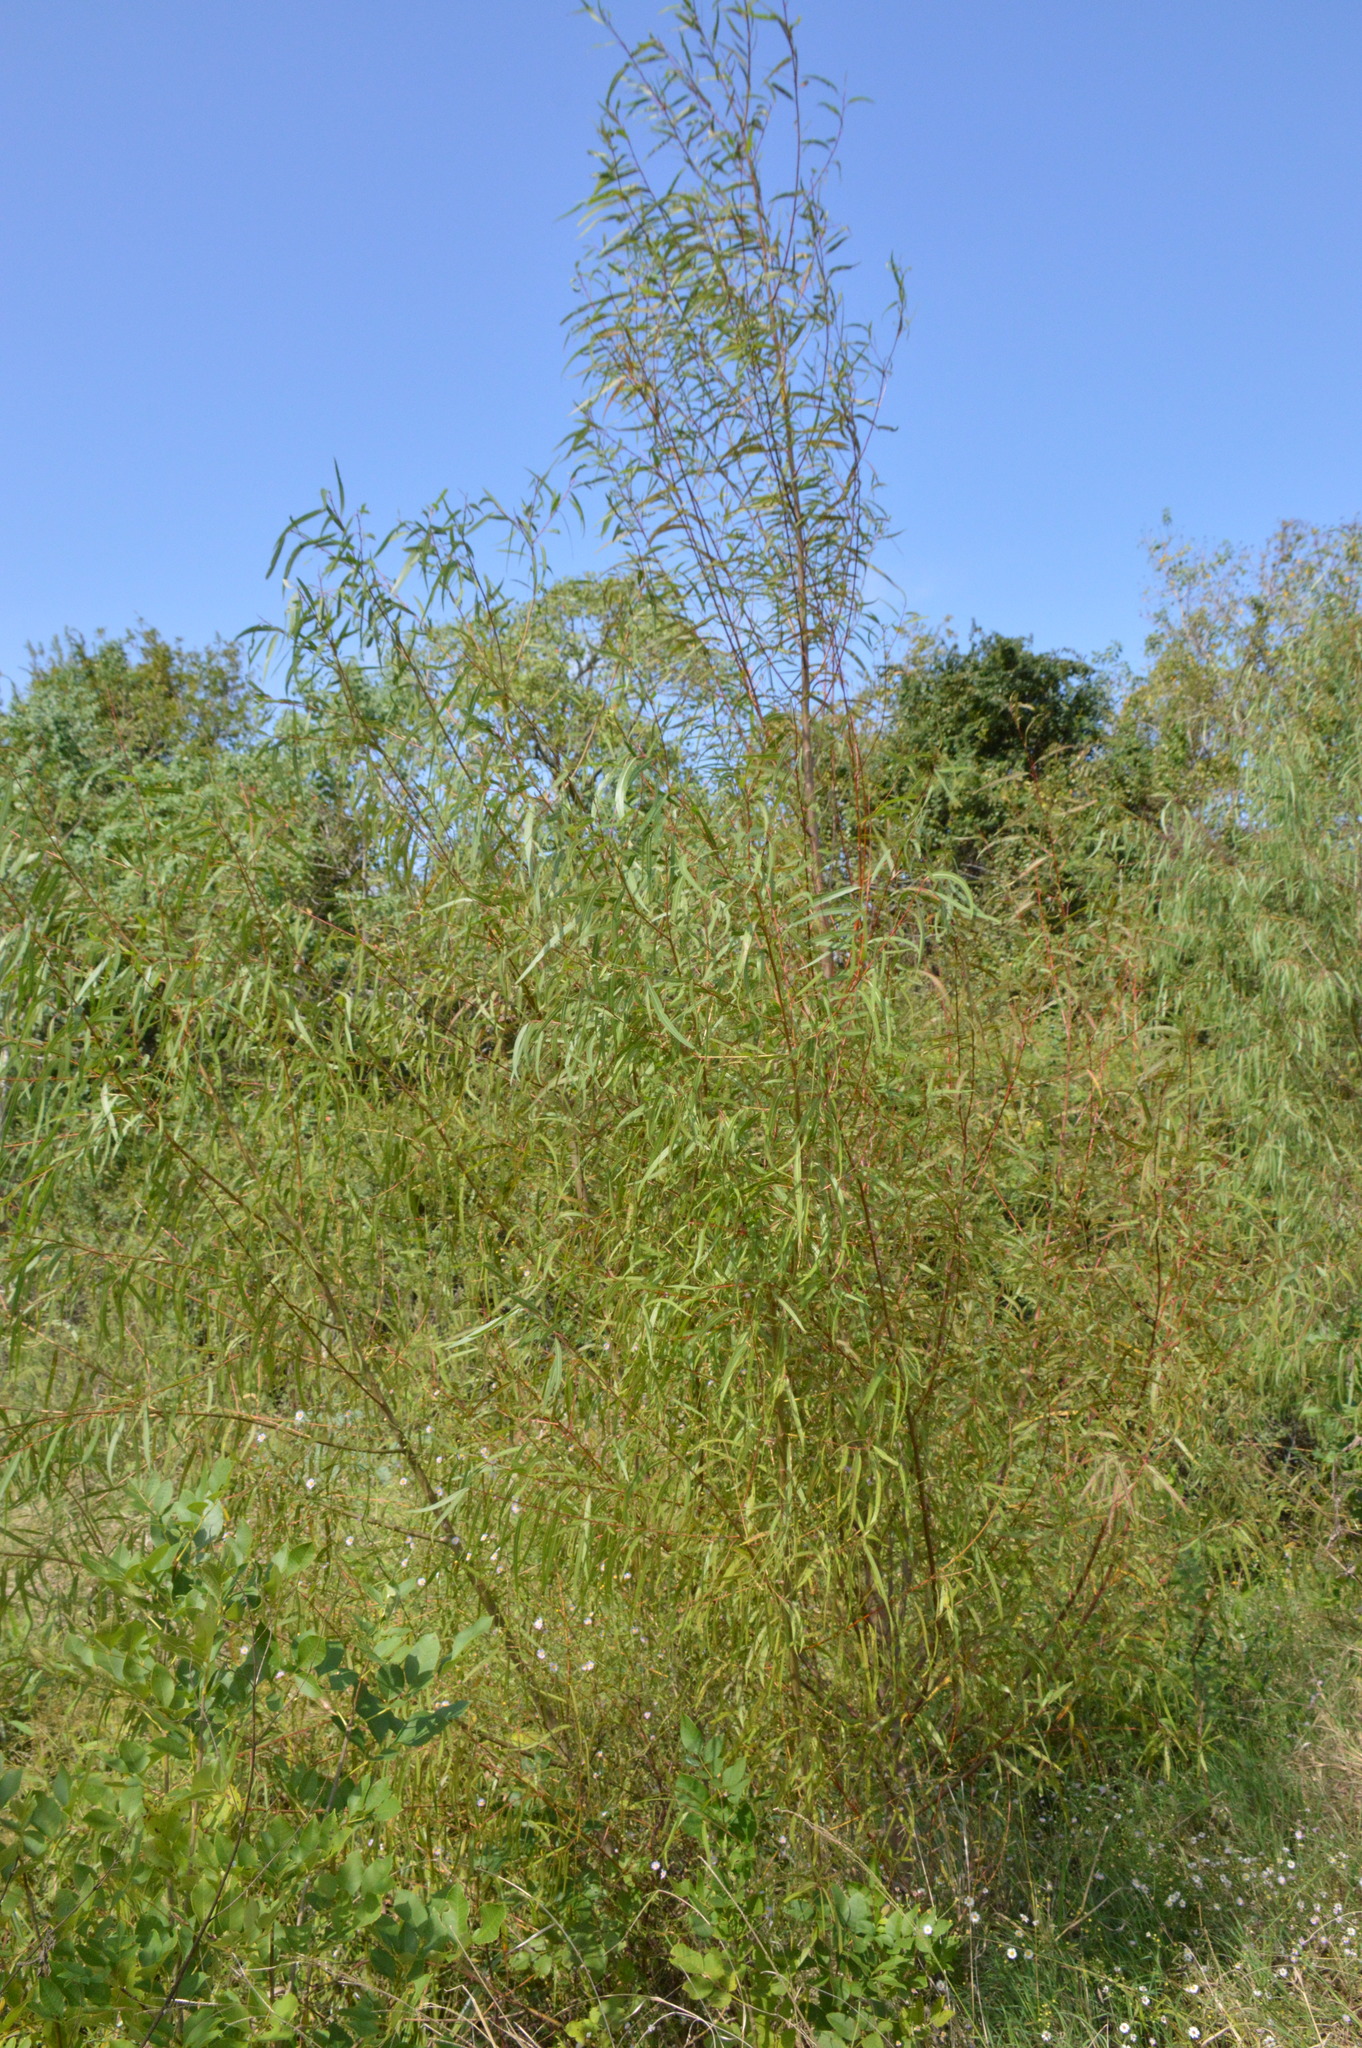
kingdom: Plantae
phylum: Tracheophyta
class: Magnoliopsida
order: Malpighiales
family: Salicaceae
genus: Salix
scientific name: Salix nigra
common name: Black willow
